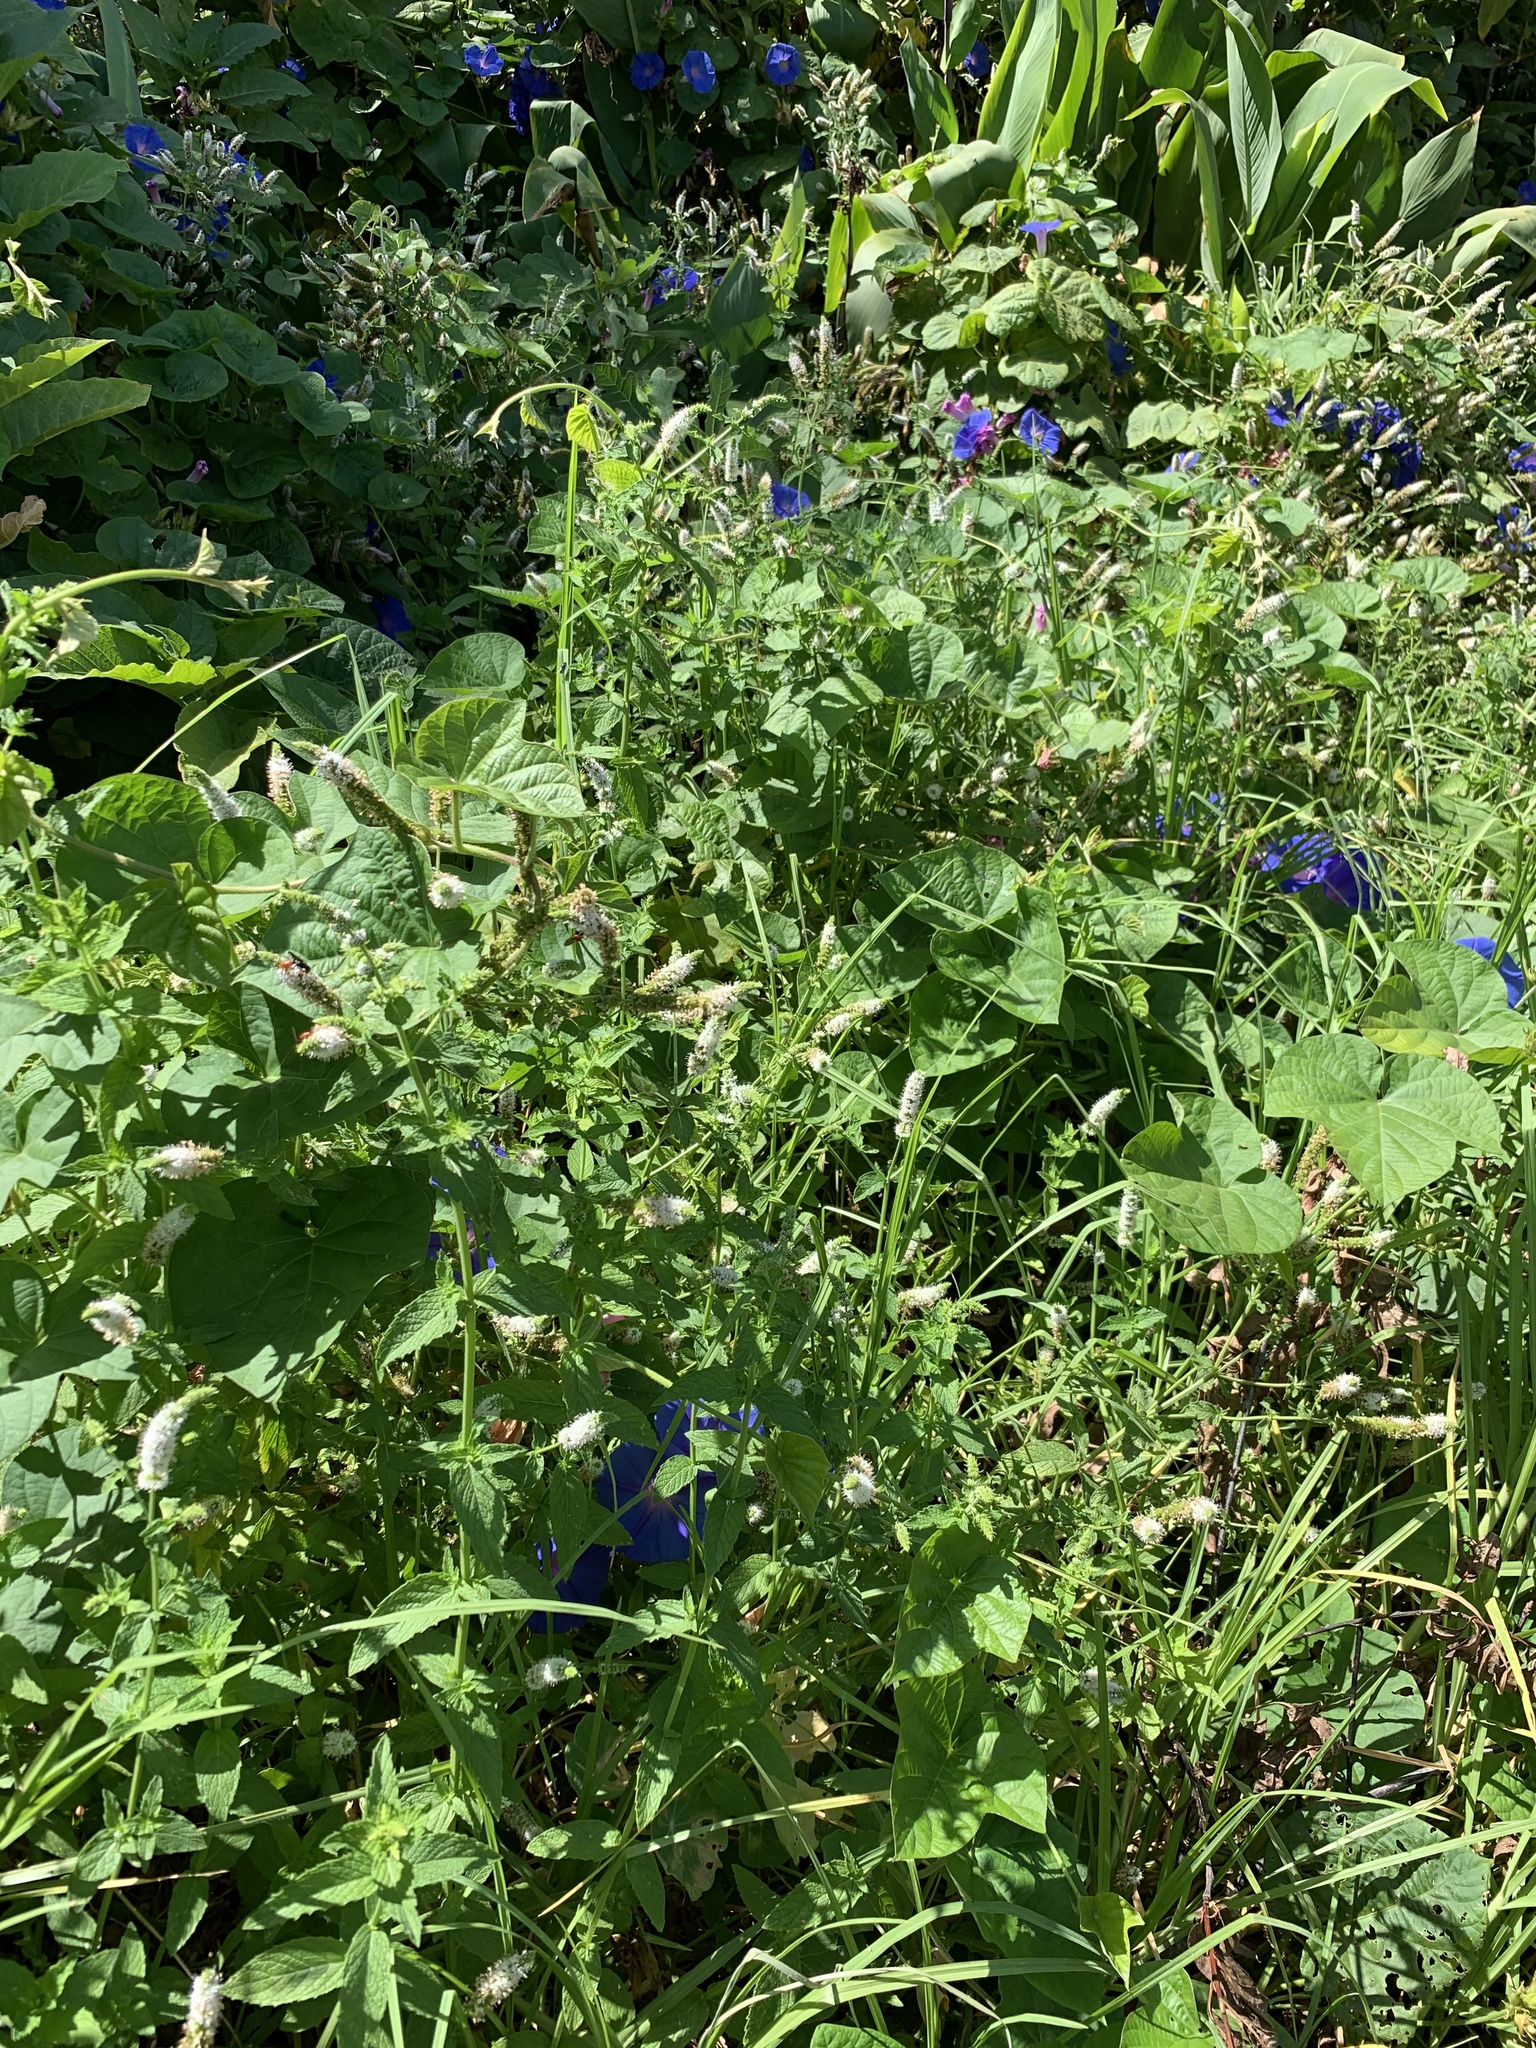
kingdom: Plantae
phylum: Tracheophyta
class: Magnoliopsida
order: Lamiales
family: Lamiaceae
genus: Mentha
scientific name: Mentha longifolia
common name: Horse mint
